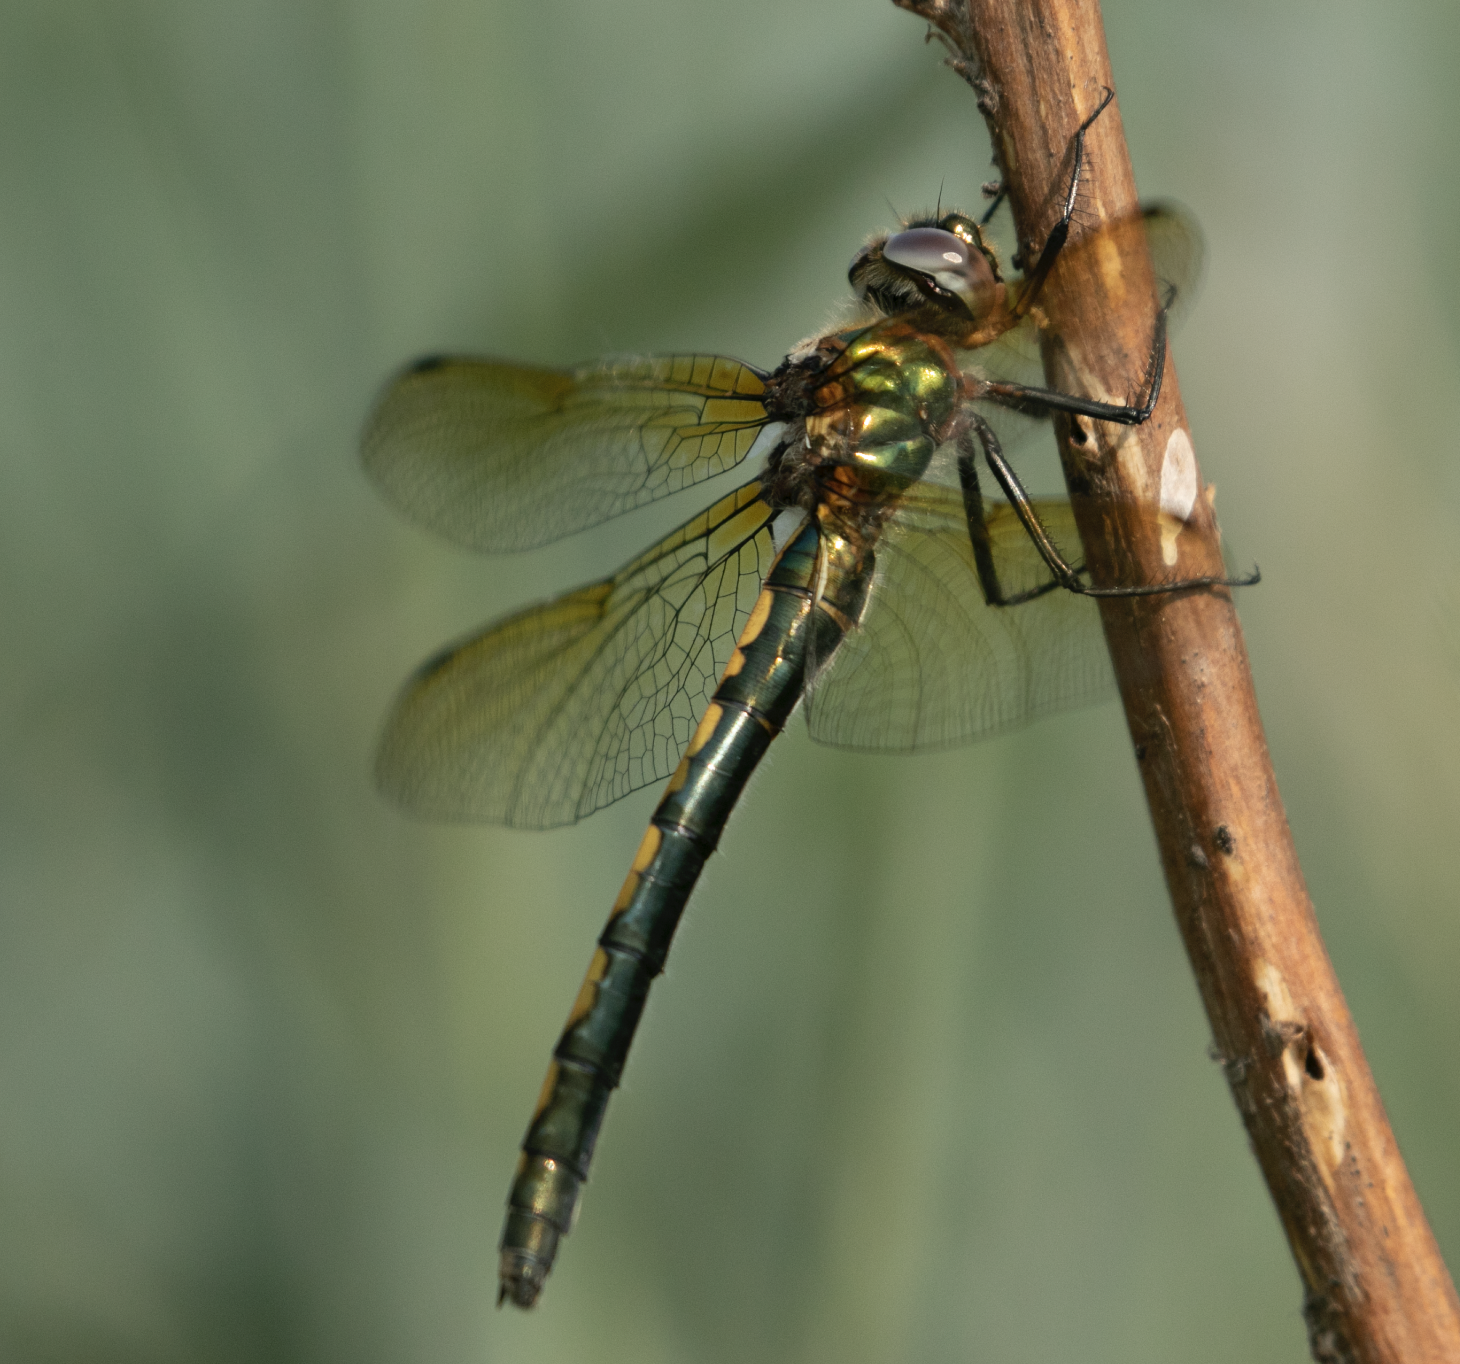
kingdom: Animalia
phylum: Arthropoda
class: Insecta
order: Odonata
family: Corduliidae
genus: Oxygastra
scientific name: Oxygastra curtisii
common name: Orange-spotted emerald
